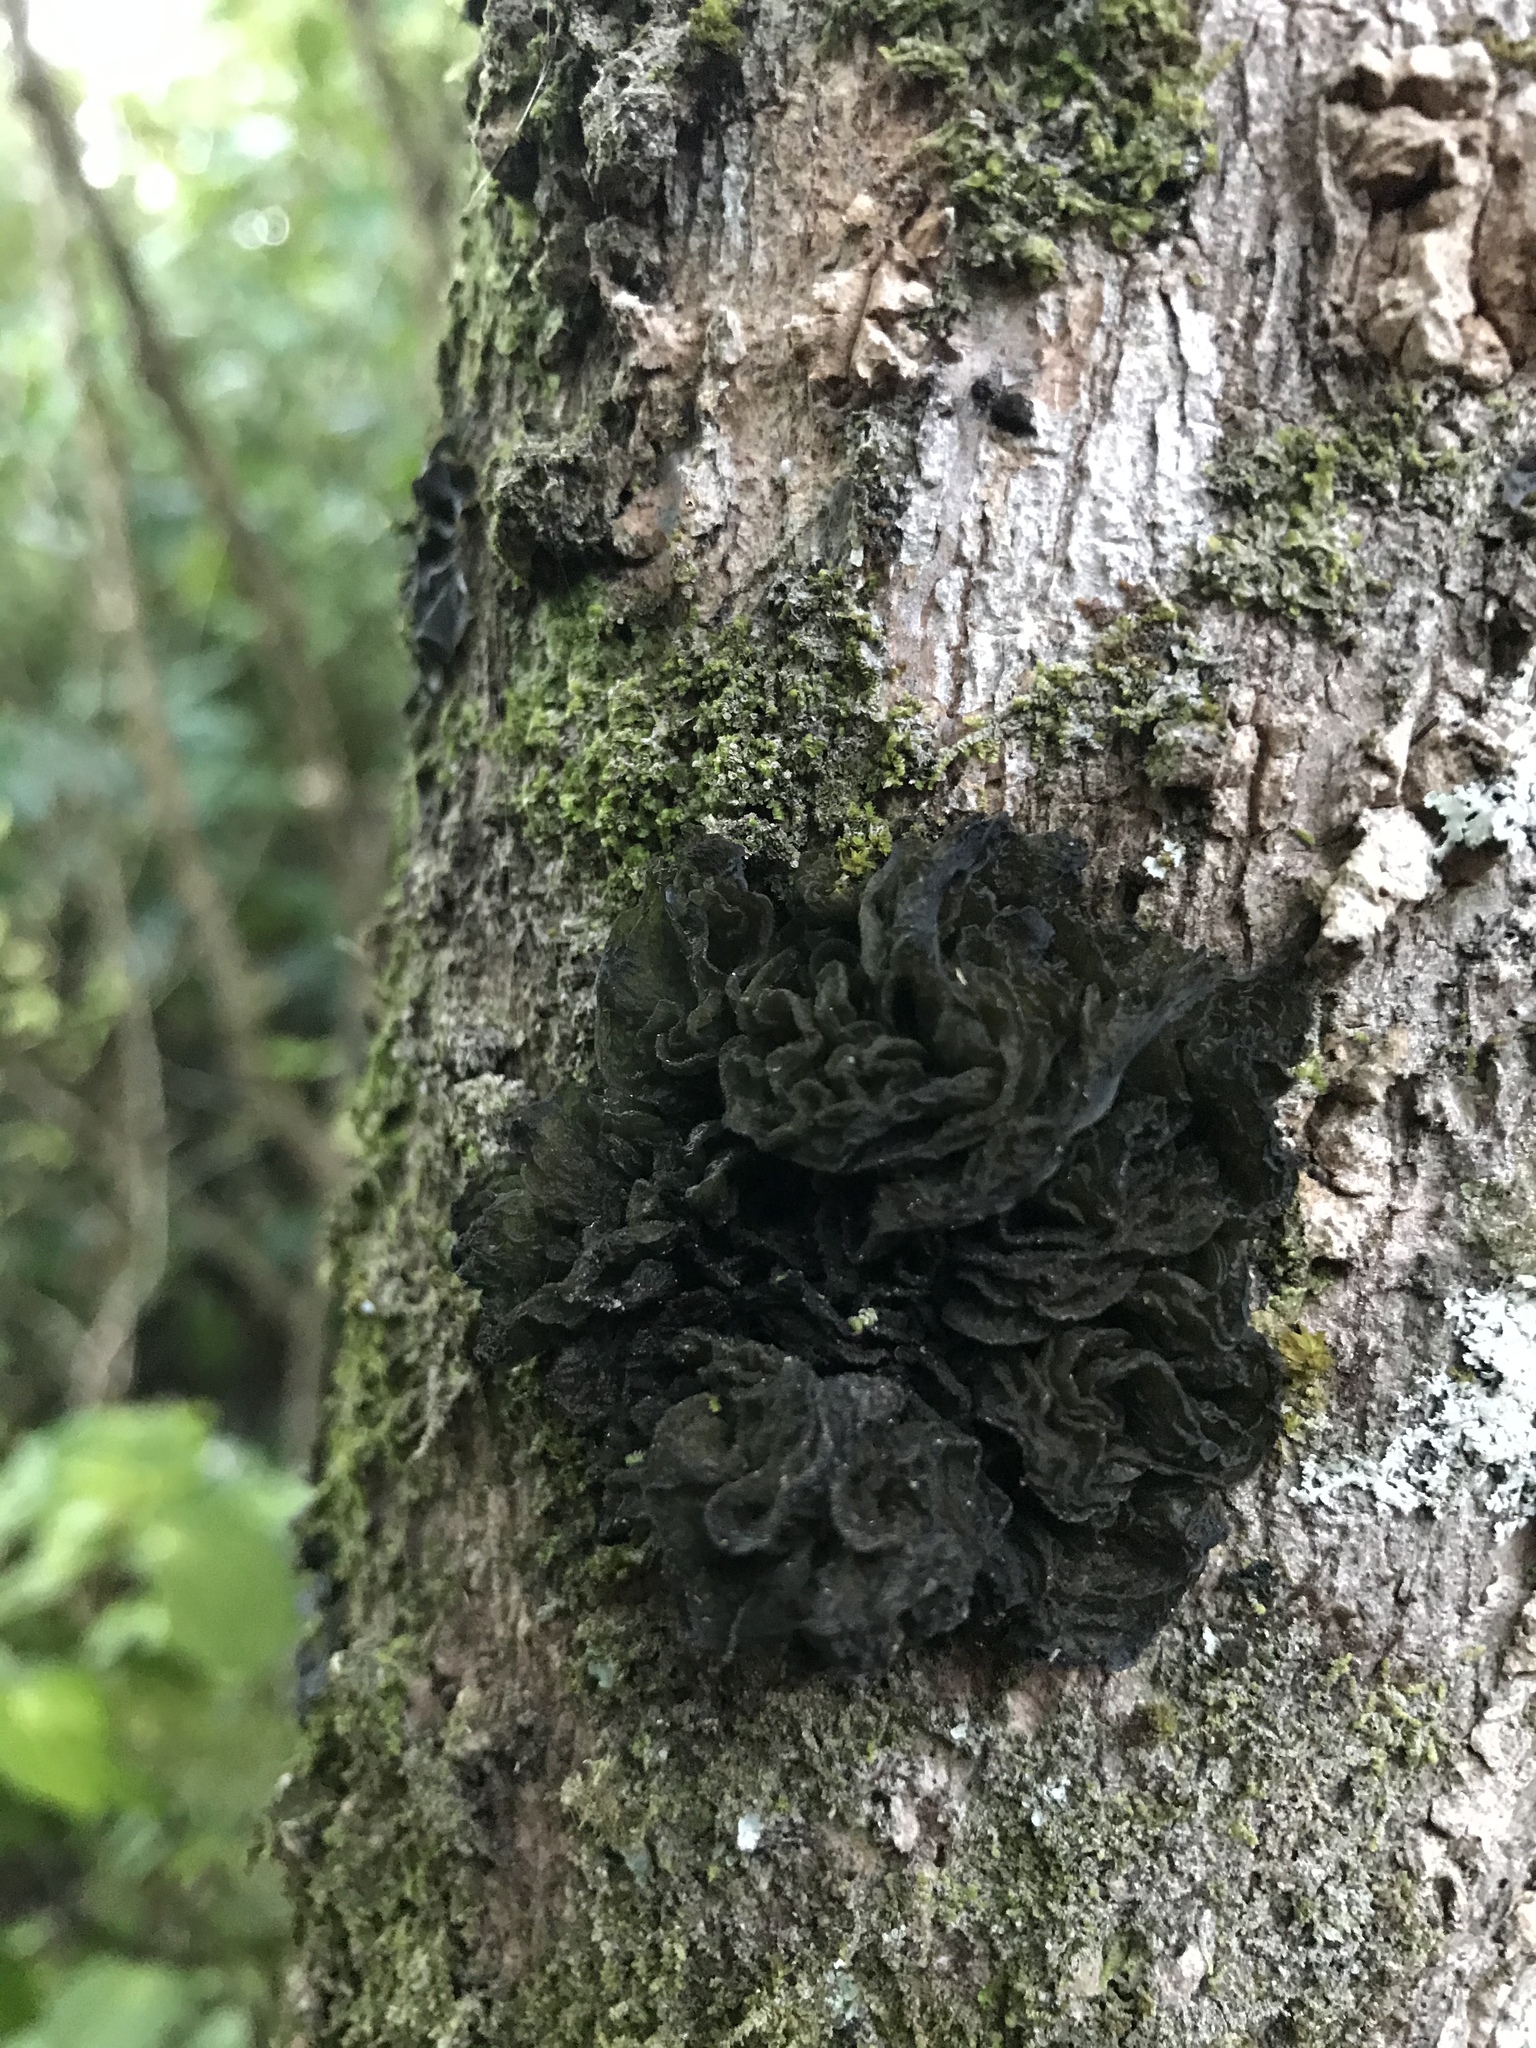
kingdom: Fungi
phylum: Ascomycota
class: Lecanoromycetes
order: Peltigerales
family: Collemataceae
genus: Leptogium
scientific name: Leptogium coralloideum
